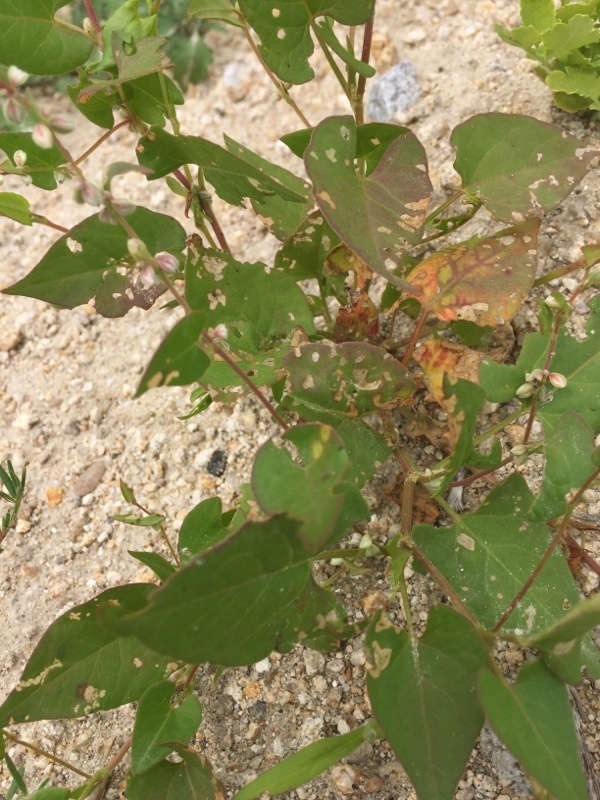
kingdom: Plantae
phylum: Tracheophyta
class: Magnoliopsida
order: Caryophyllales
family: Polygonaceae
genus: Fallopia
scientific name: Fallopia convolvulus
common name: Black bindweed
